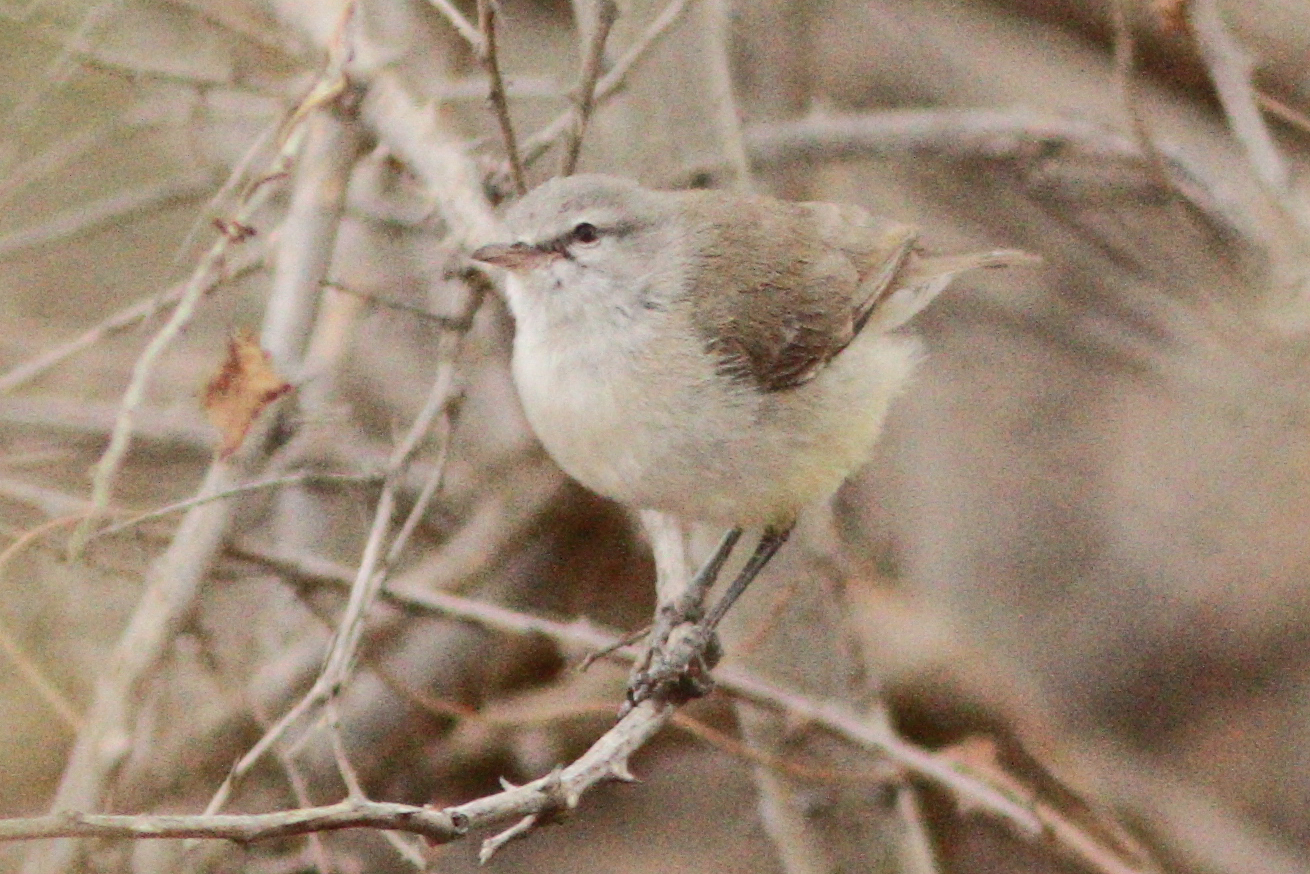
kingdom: Animalia
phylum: Chordata
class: Aves
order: Passeriformes
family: Cisticolidae
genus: Eremomela
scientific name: Eremomela icteropygialis
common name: Yellow-bellied eremomela
